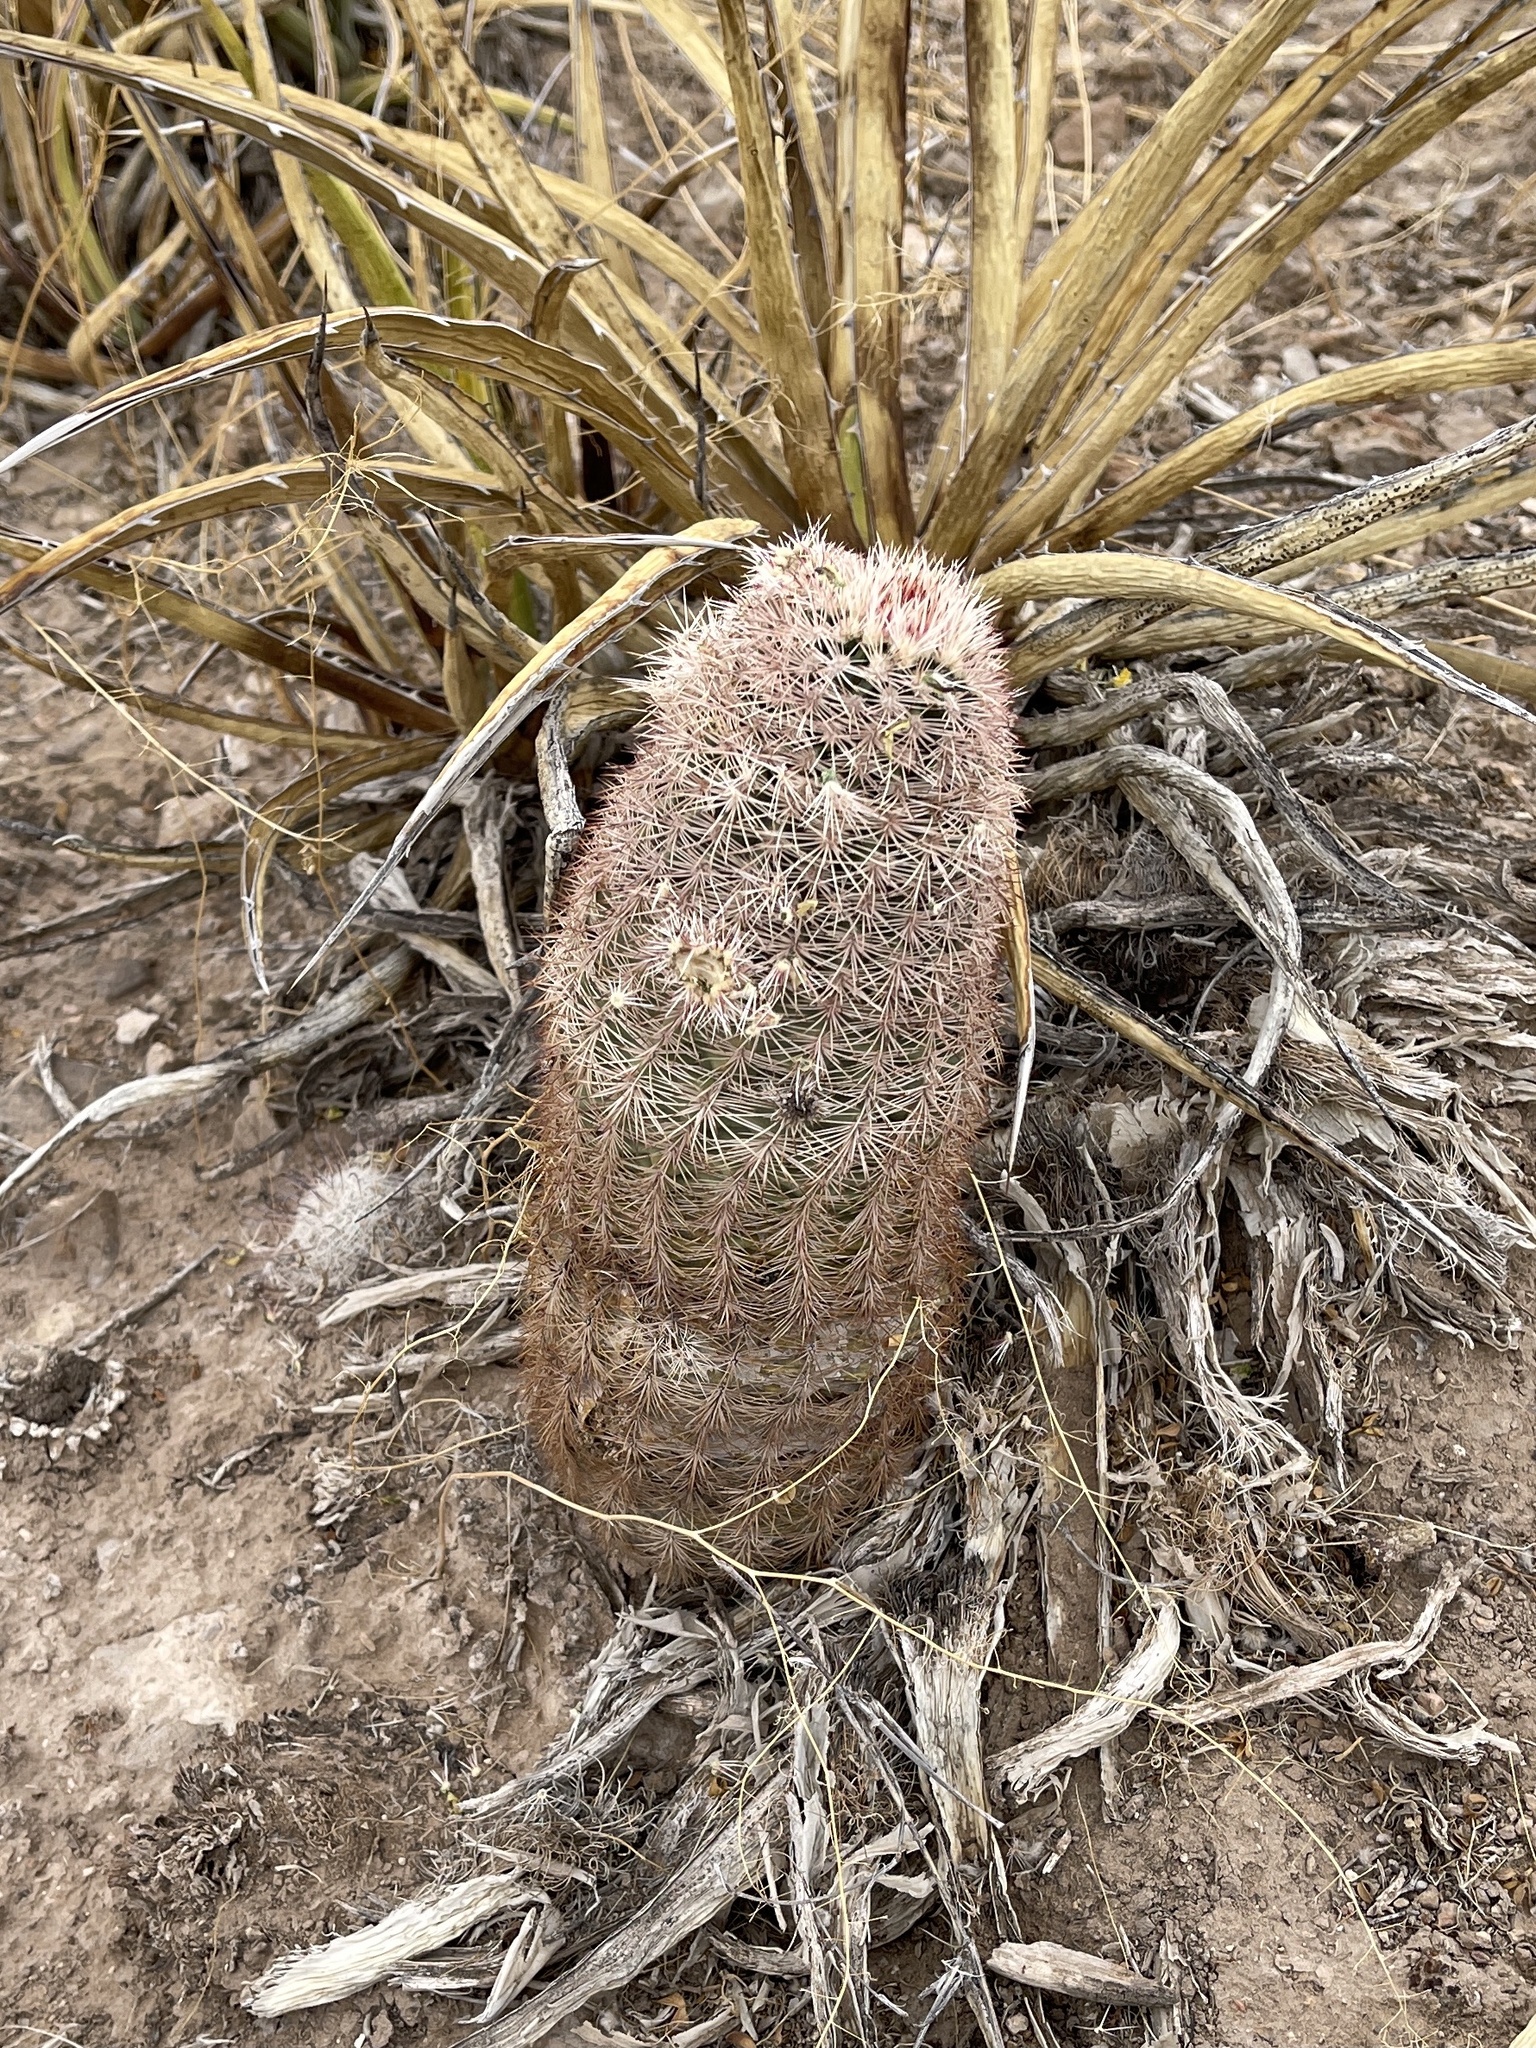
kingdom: Plantae
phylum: Tracheophyta
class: Magnoliopsida
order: Caryophyllales
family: Cactaceae
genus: Echinocereus
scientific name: Echinocereus dasyacanthus
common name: Spiny hedgehog cactus
